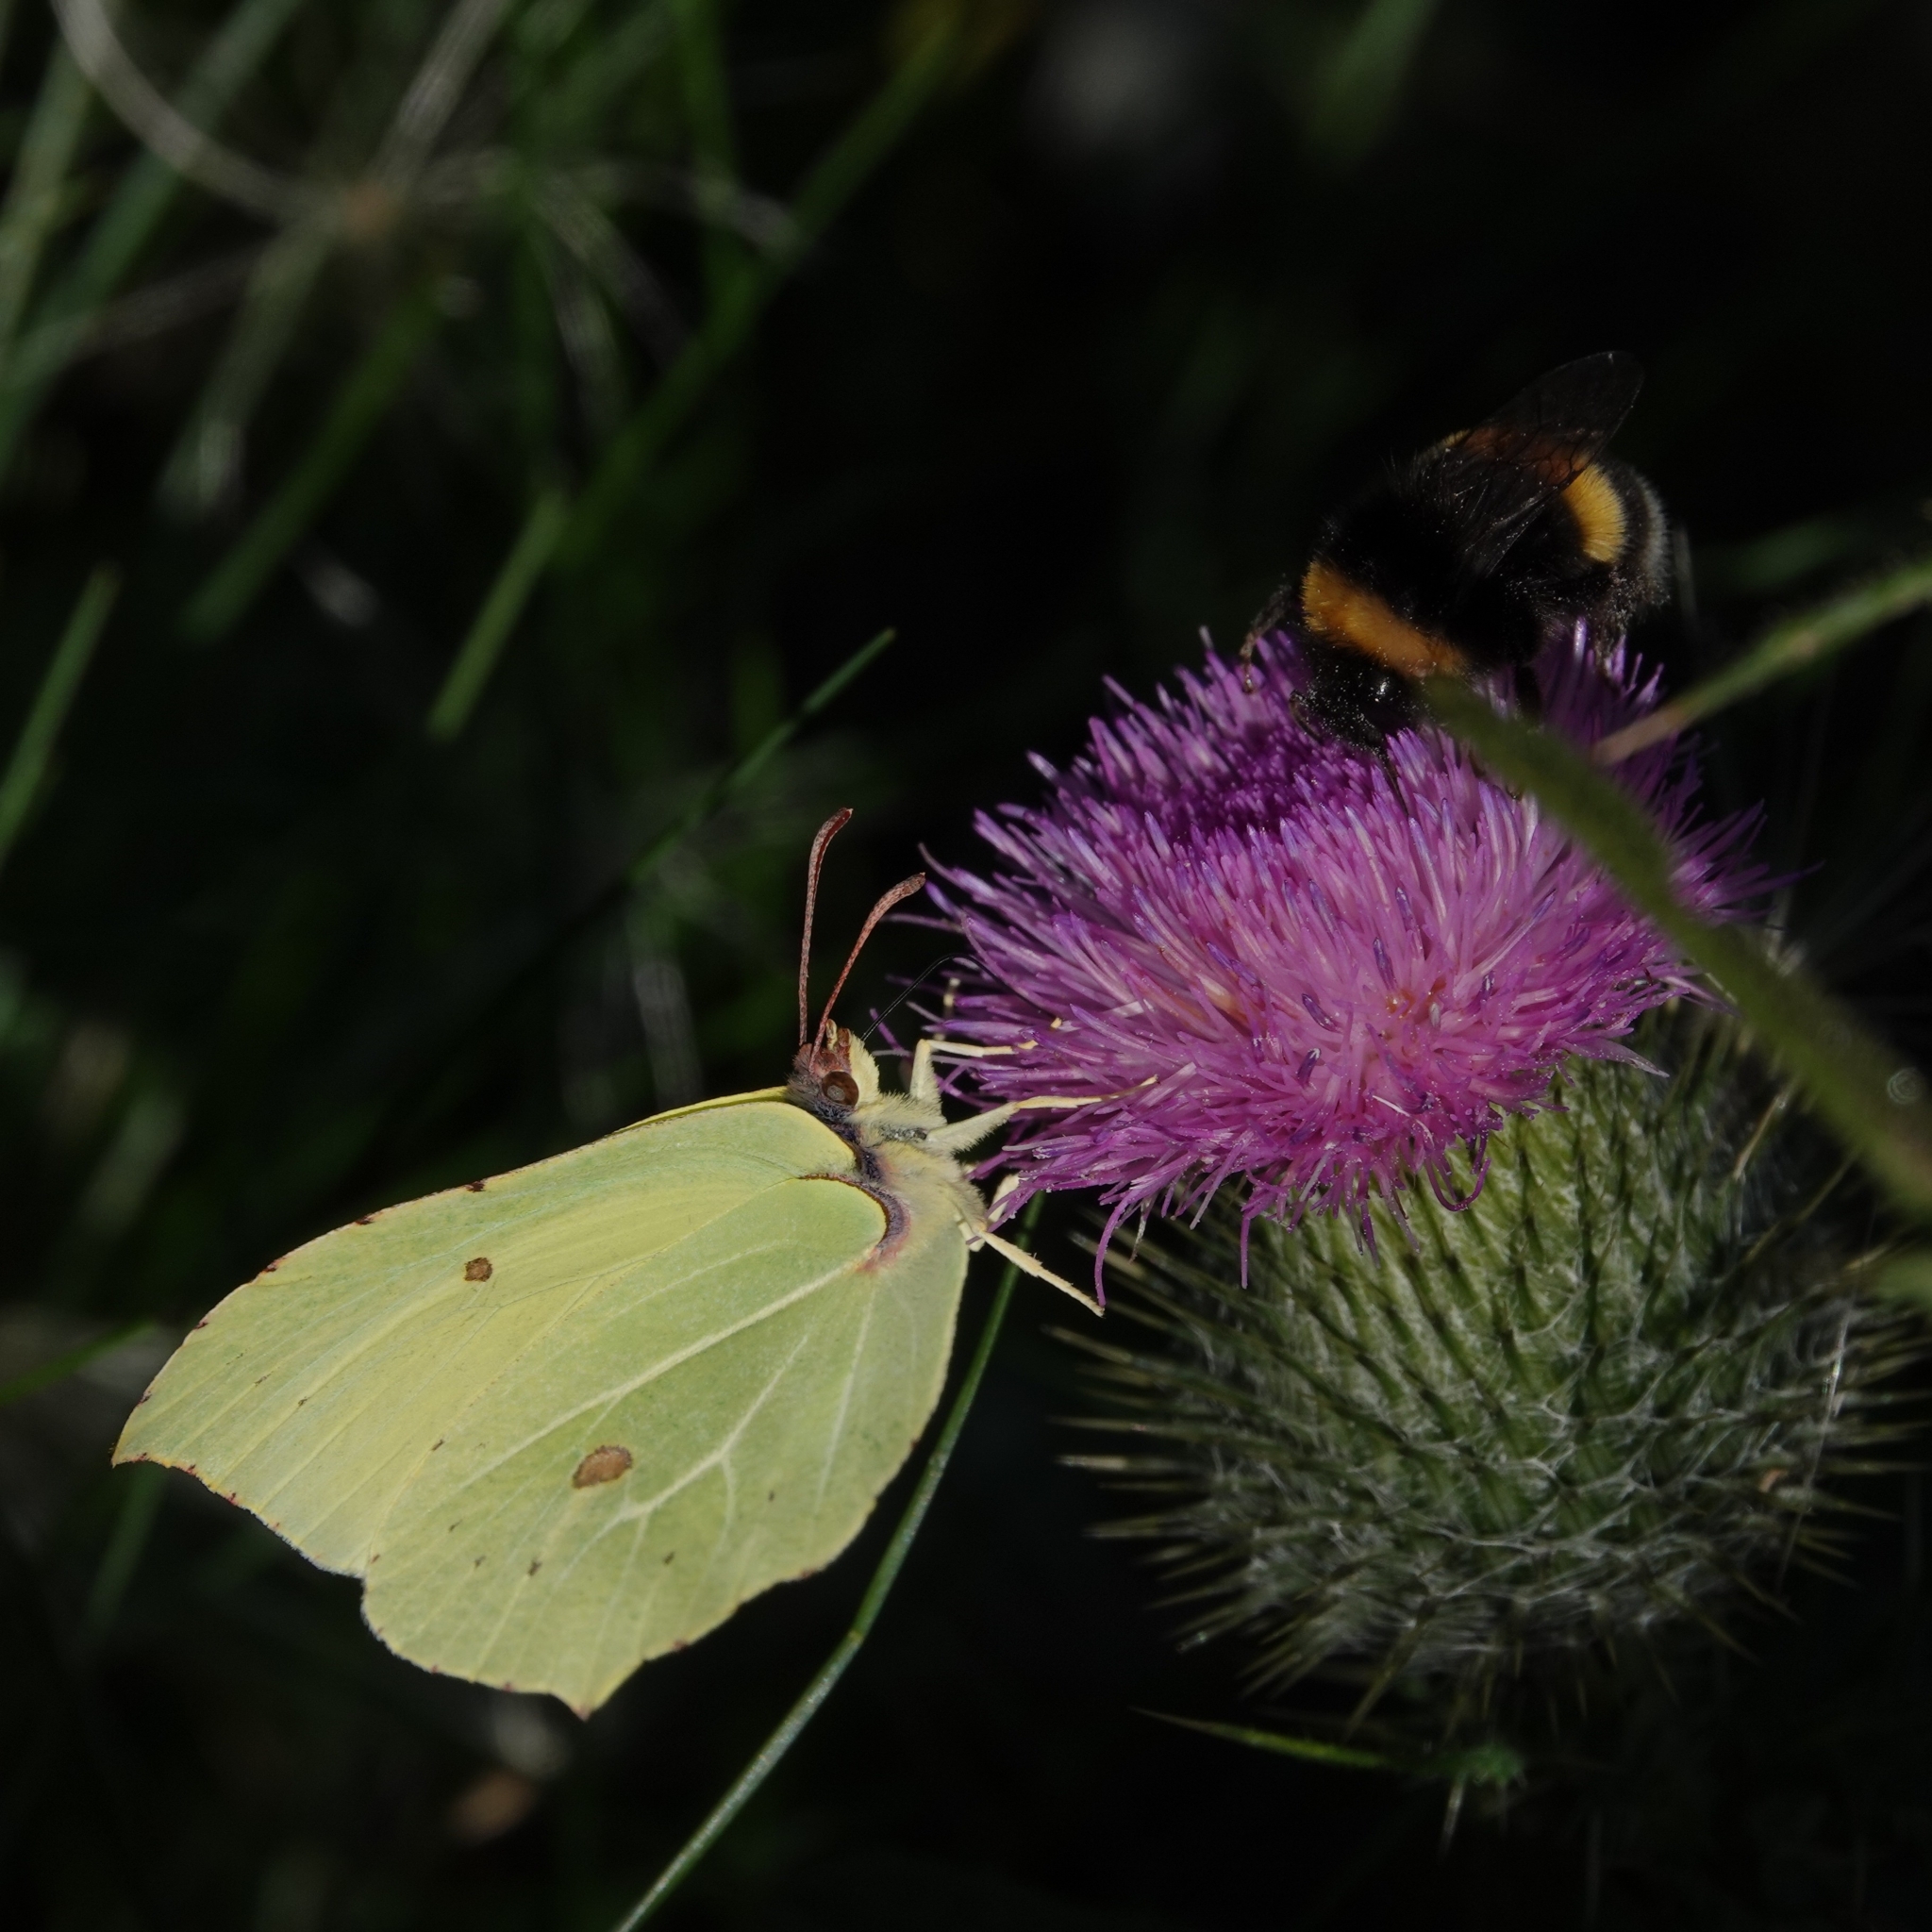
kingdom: Animalia
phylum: Arthropoda
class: Insecta
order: Lepidoptera
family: Pieridae
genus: Gonepteryx
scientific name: Gonepteryx rhamni
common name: Brimstone
